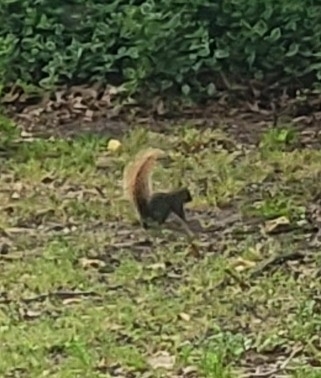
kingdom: Animalia
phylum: Chordata
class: Mammalia
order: Rodentia
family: Sciuridae
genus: Sciurus
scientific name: Sciurus niger
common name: Fox squirrel
